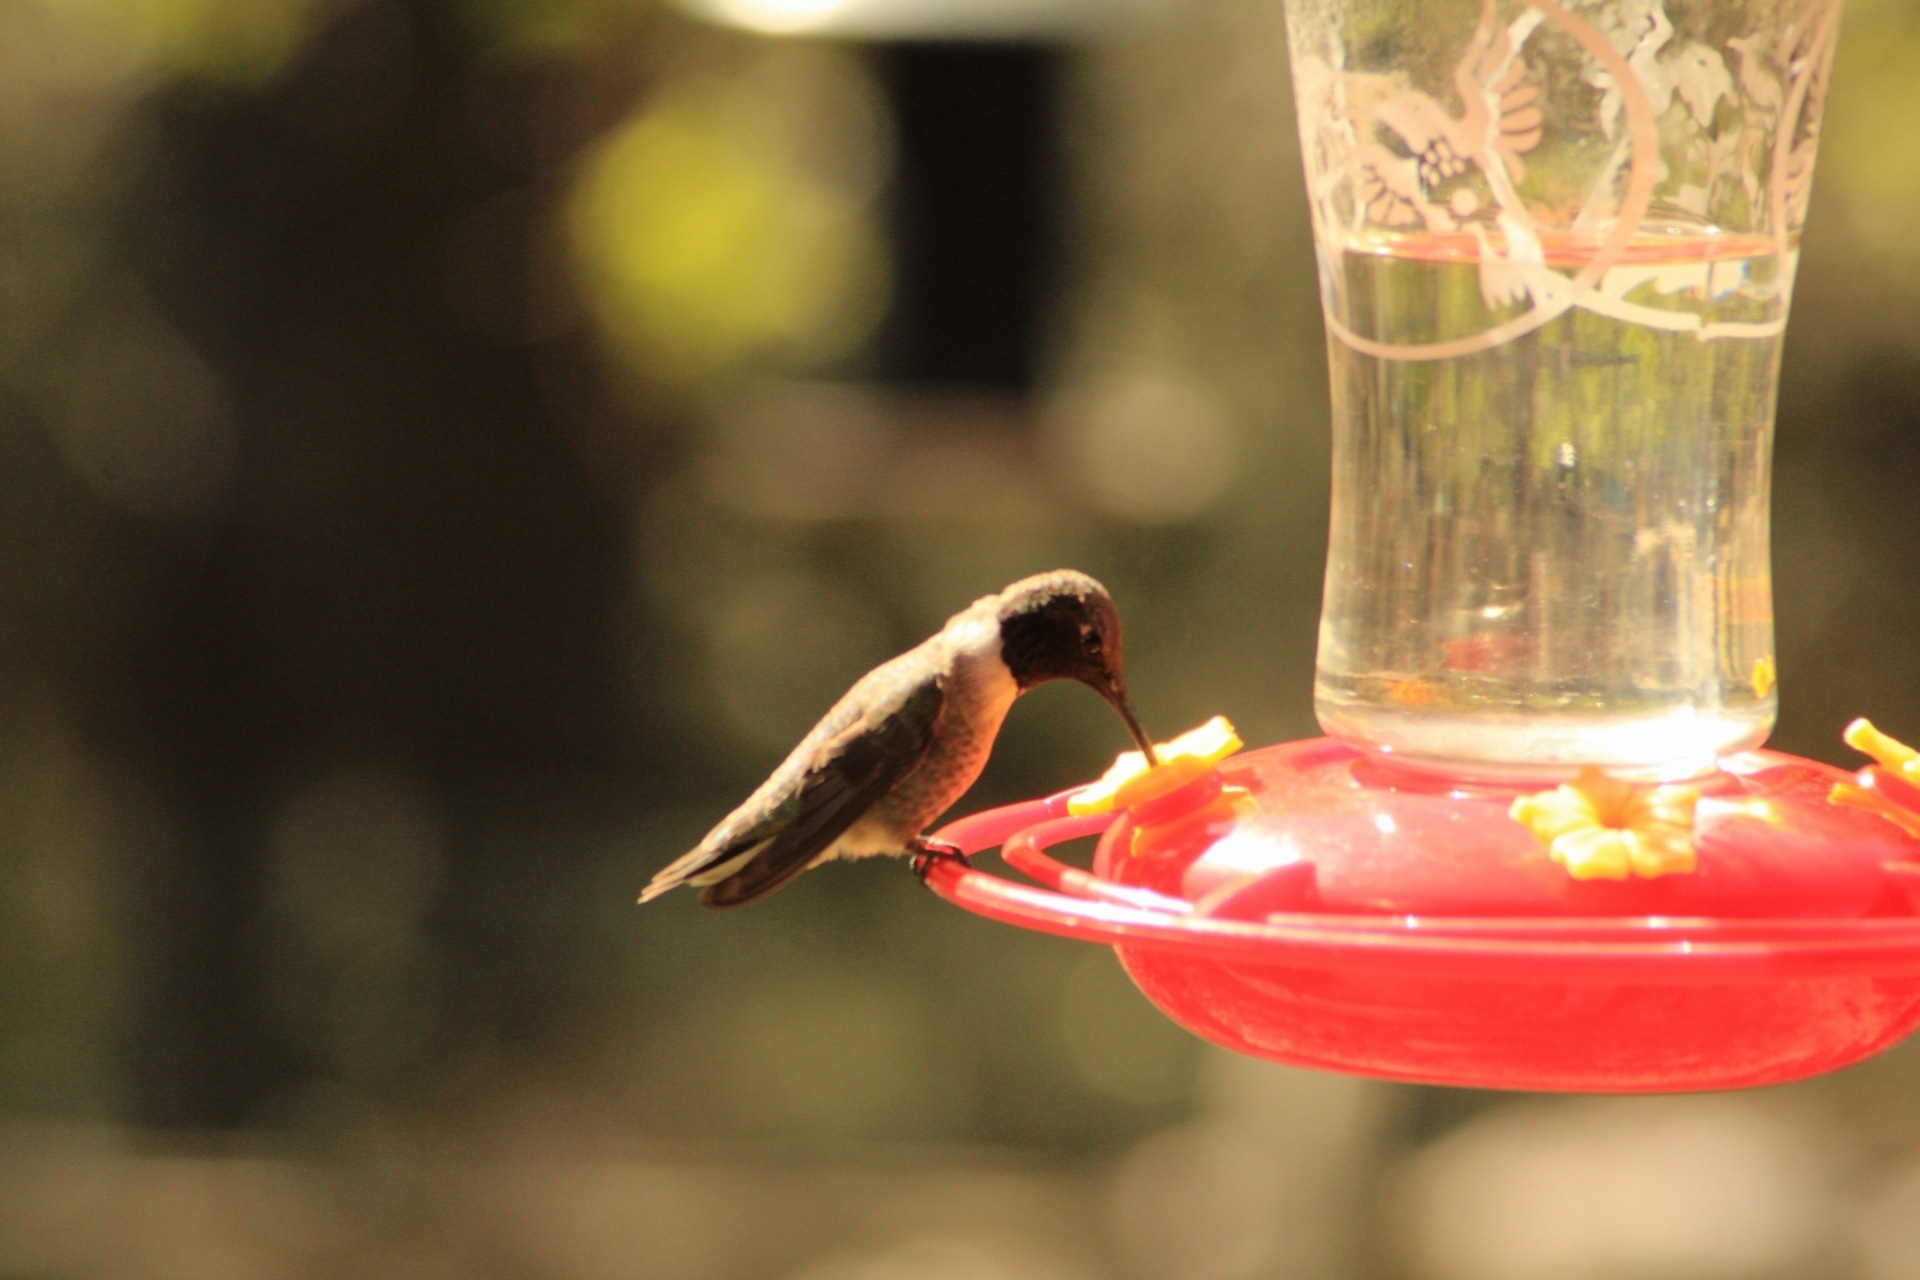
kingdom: Animalia
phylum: Chordata
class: Aves
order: Apodiformes
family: Trochilidae
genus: Archilochus
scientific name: Archilochus alexandri
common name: Black-chinned hummingbird
